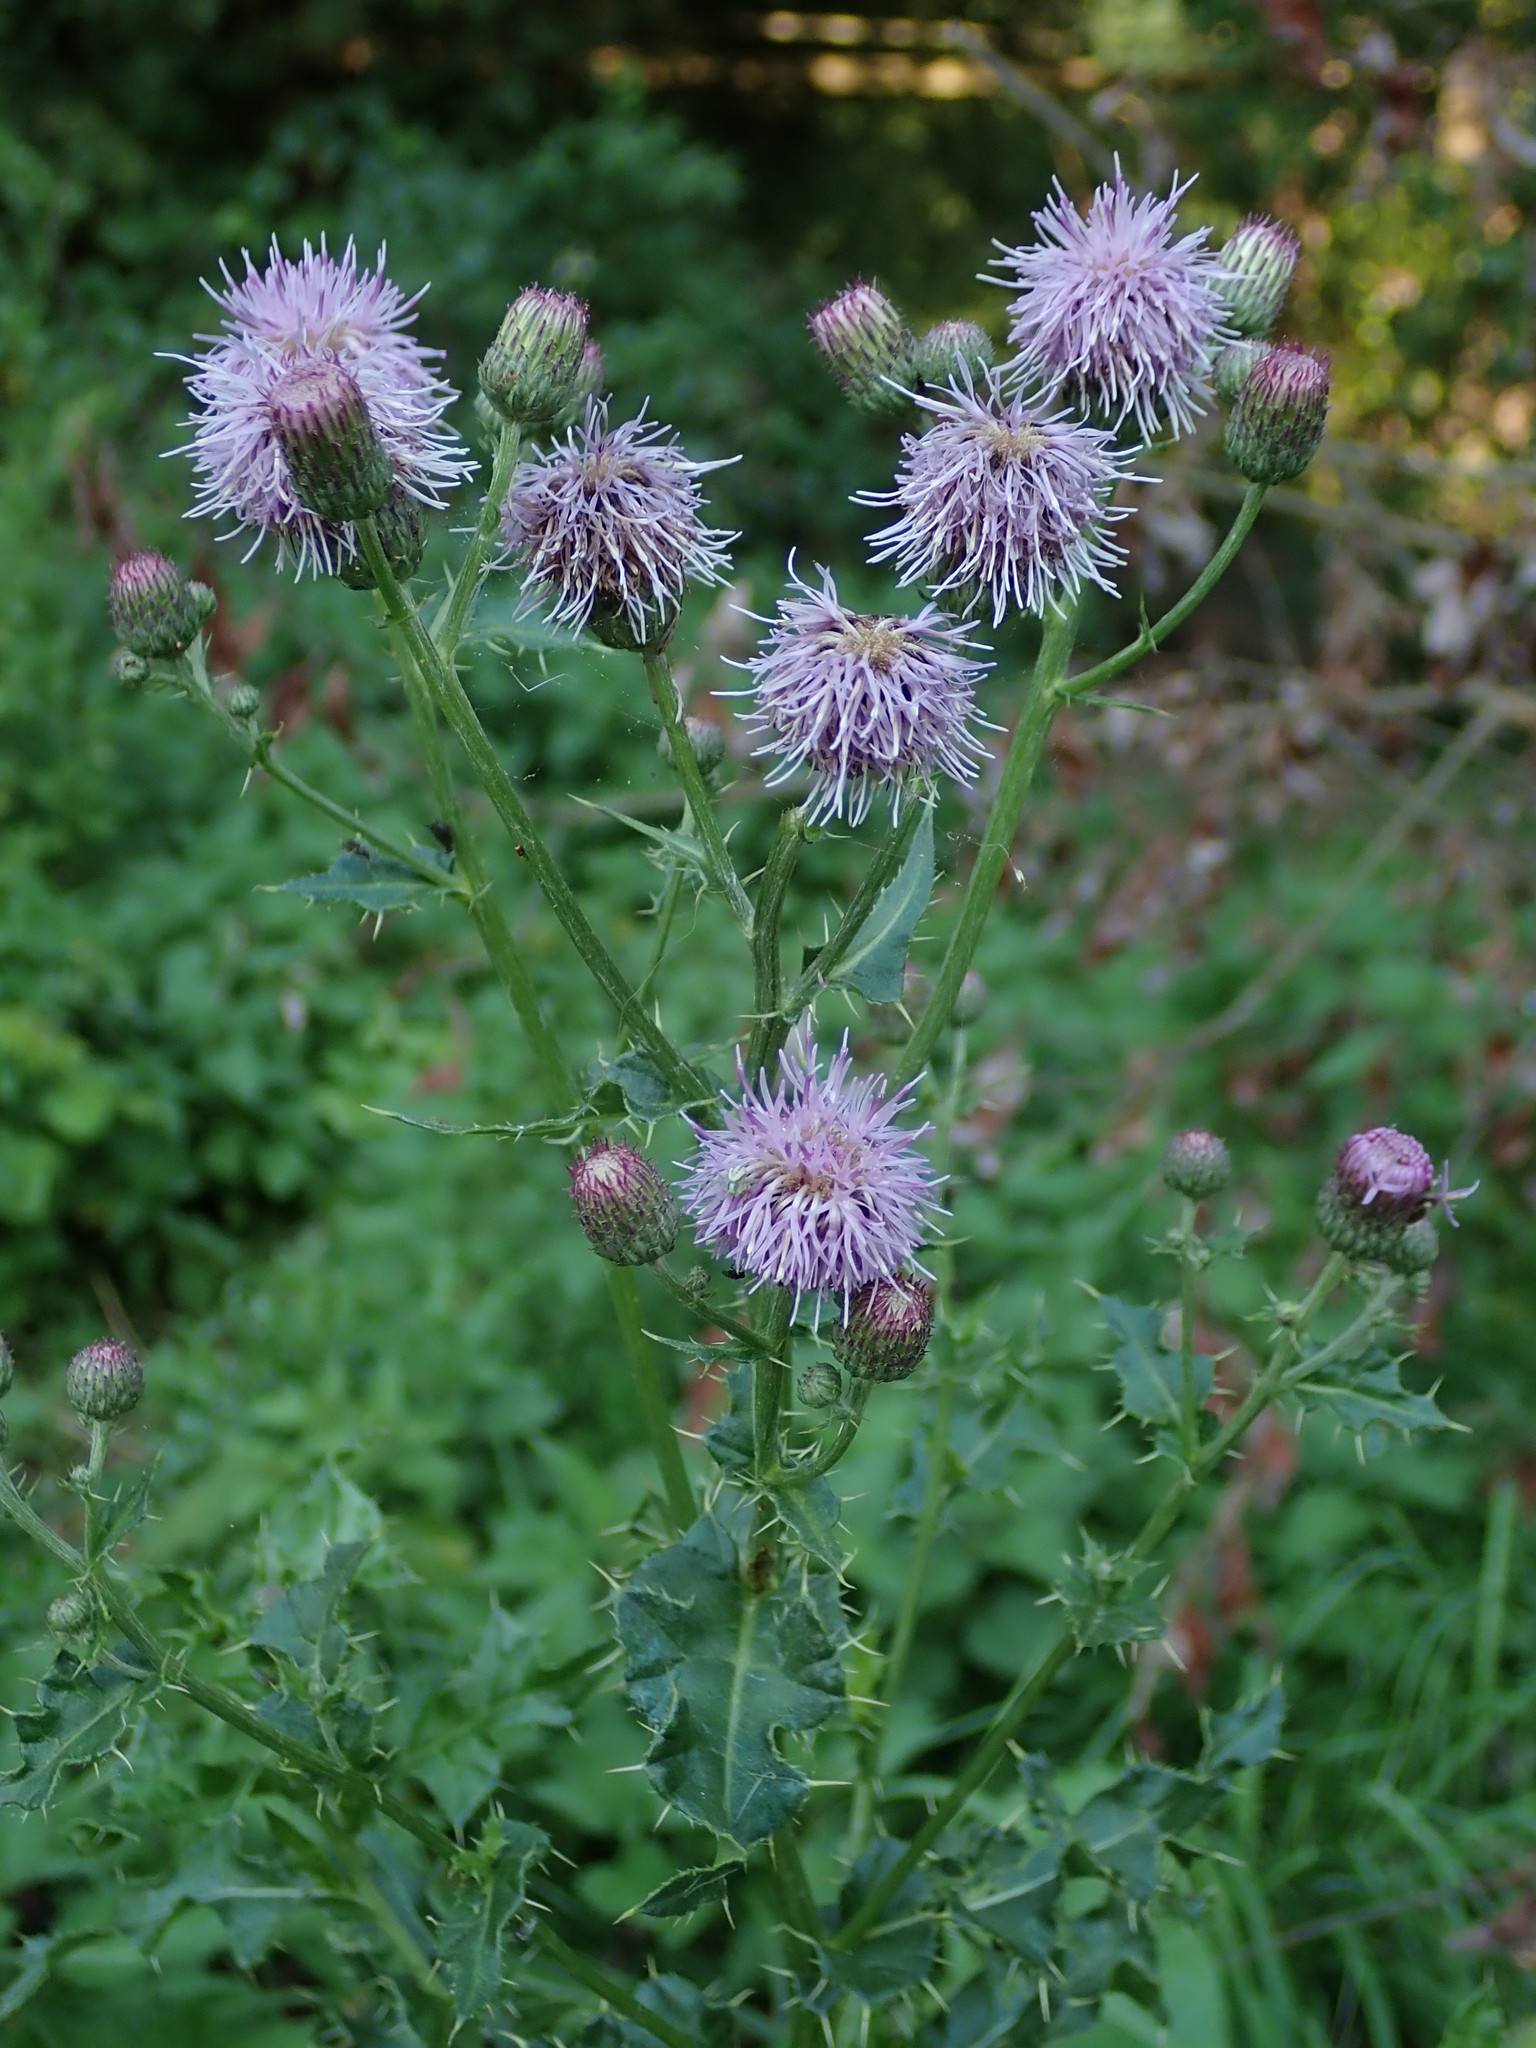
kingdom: Plantae
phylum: Tracheophyta
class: Magnoliopsida
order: Asterales
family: Asteraceae
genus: Cirsium
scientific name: Cirsium arvense
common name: Creeping thistle
